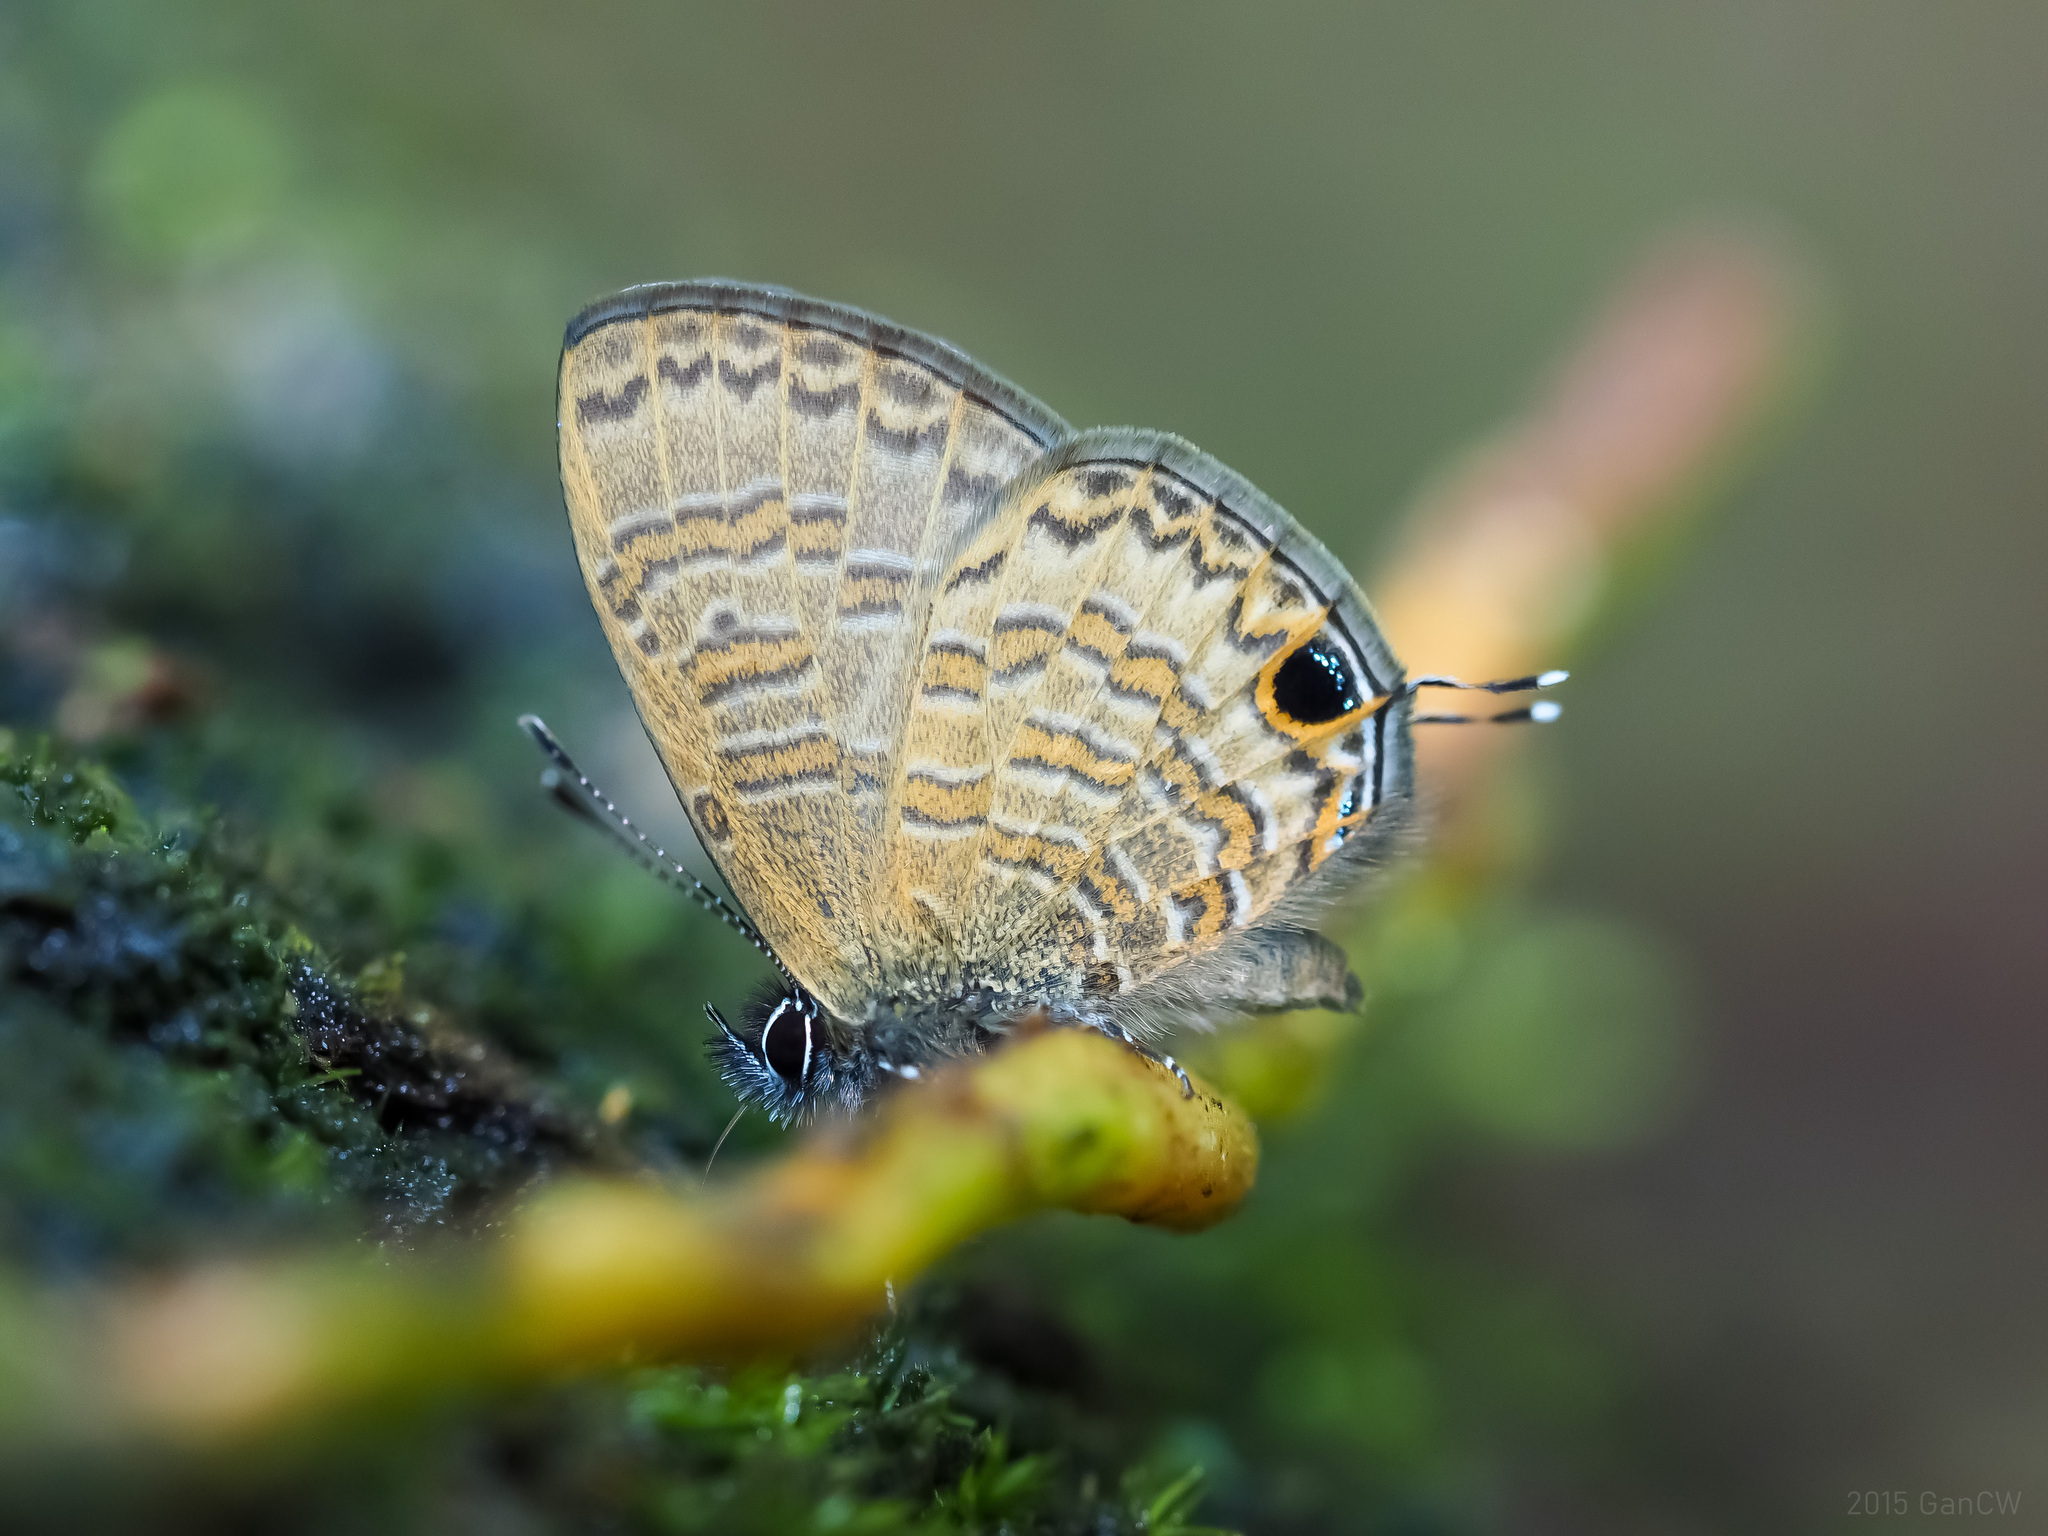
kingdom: Animalia
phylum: Arthropoda
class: Insecta
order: Lepidoptera
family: Lycaenidae
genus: Prosotas
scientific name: Prosotas nora
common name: Common line blue
